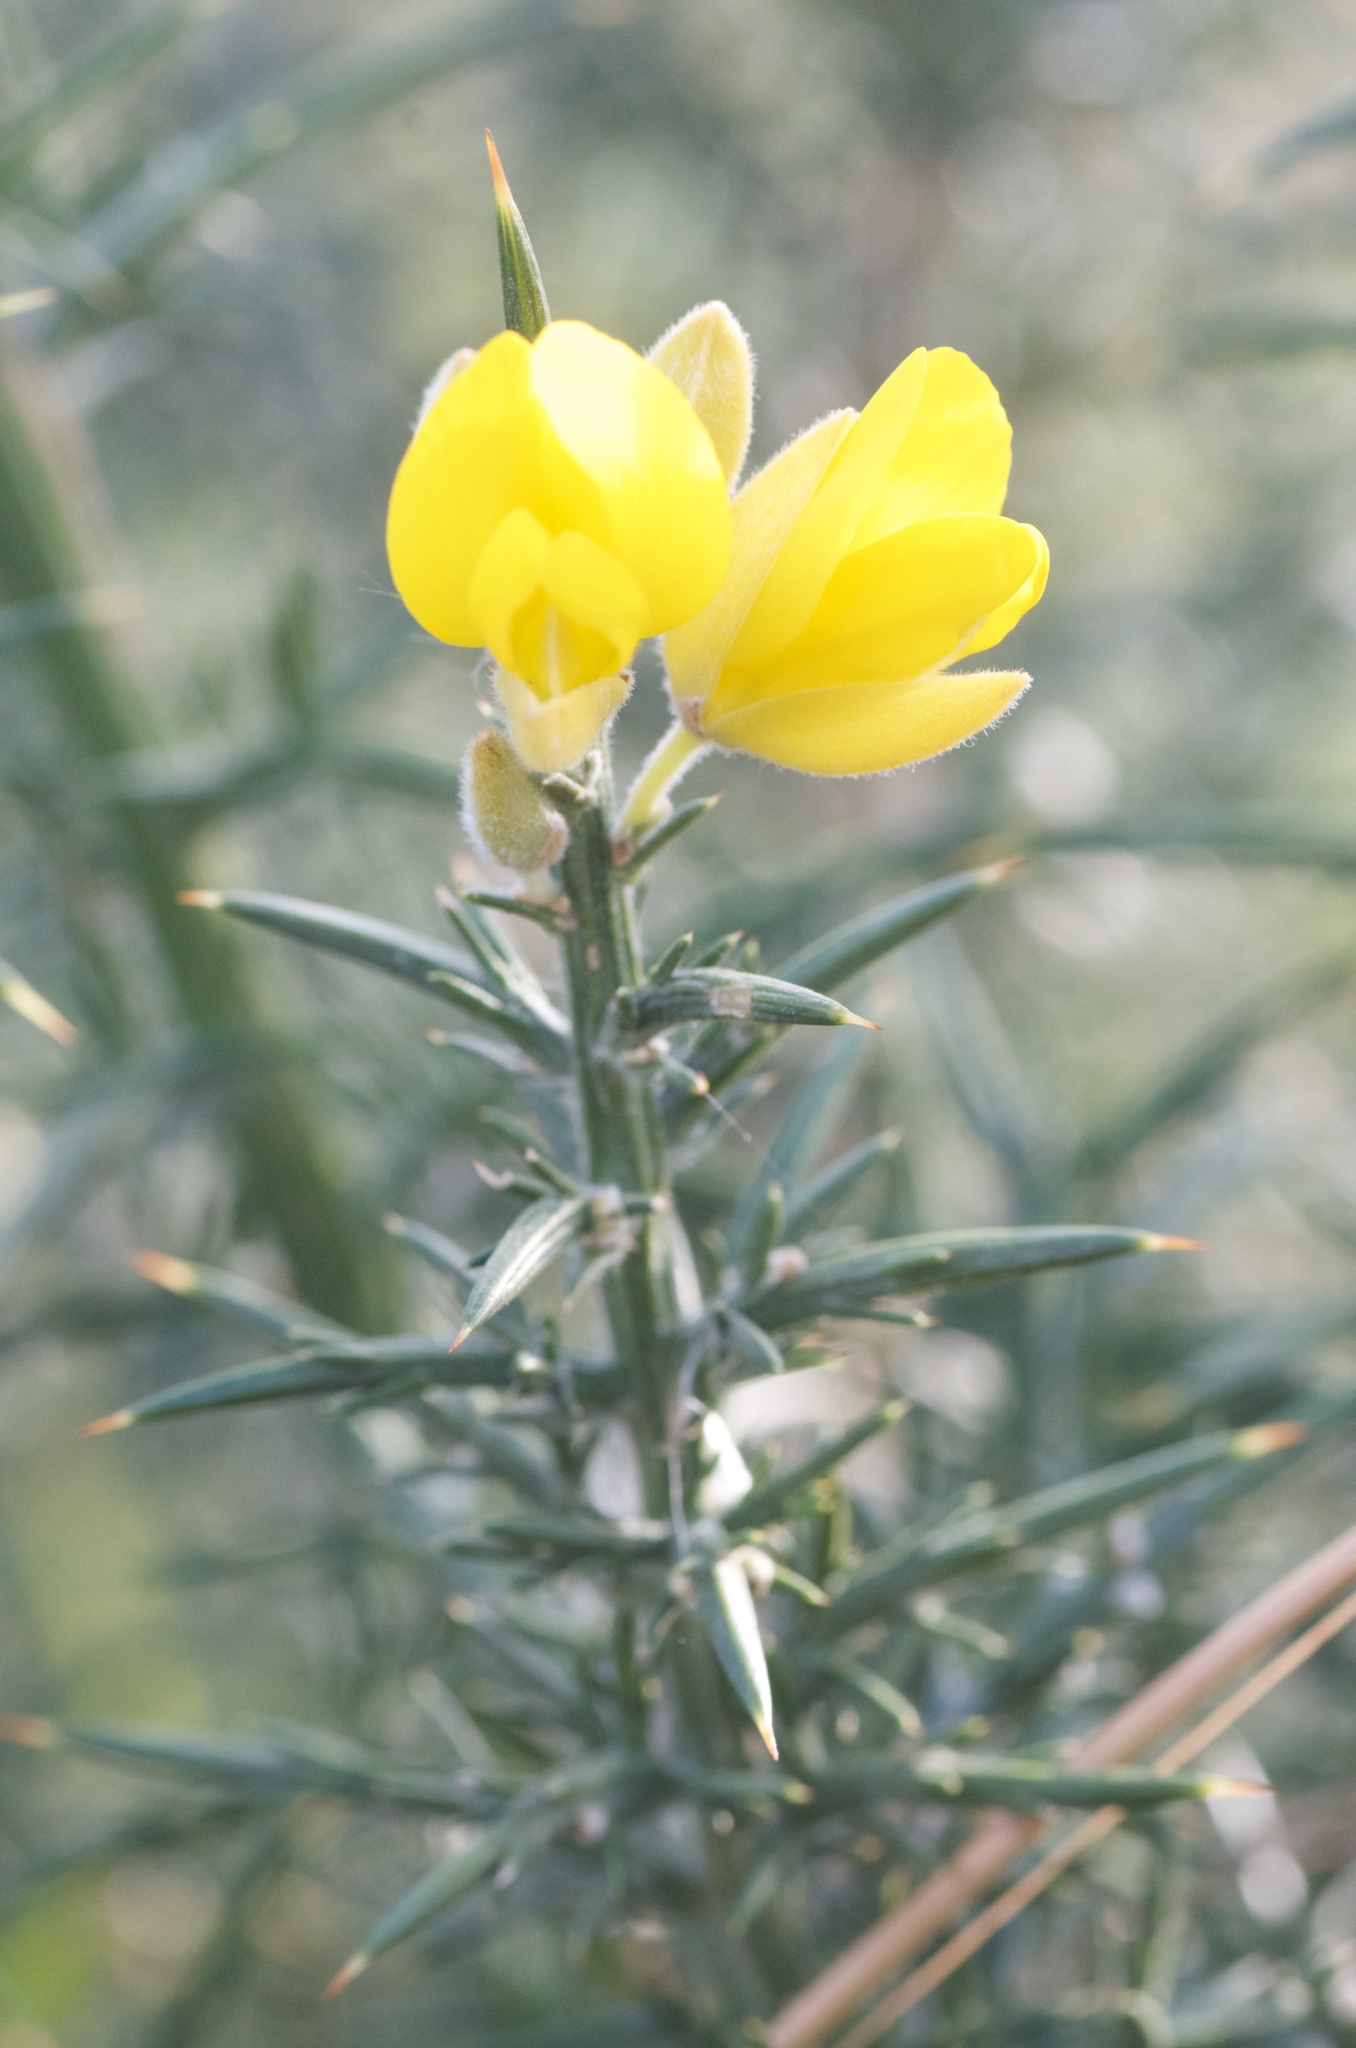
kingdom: Plantae
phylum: Tracheophyta
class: Magnoliopsida
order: Fabales
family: Fabaceae
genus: Ulex
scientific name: Ulex europaeus
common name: Common gorse
